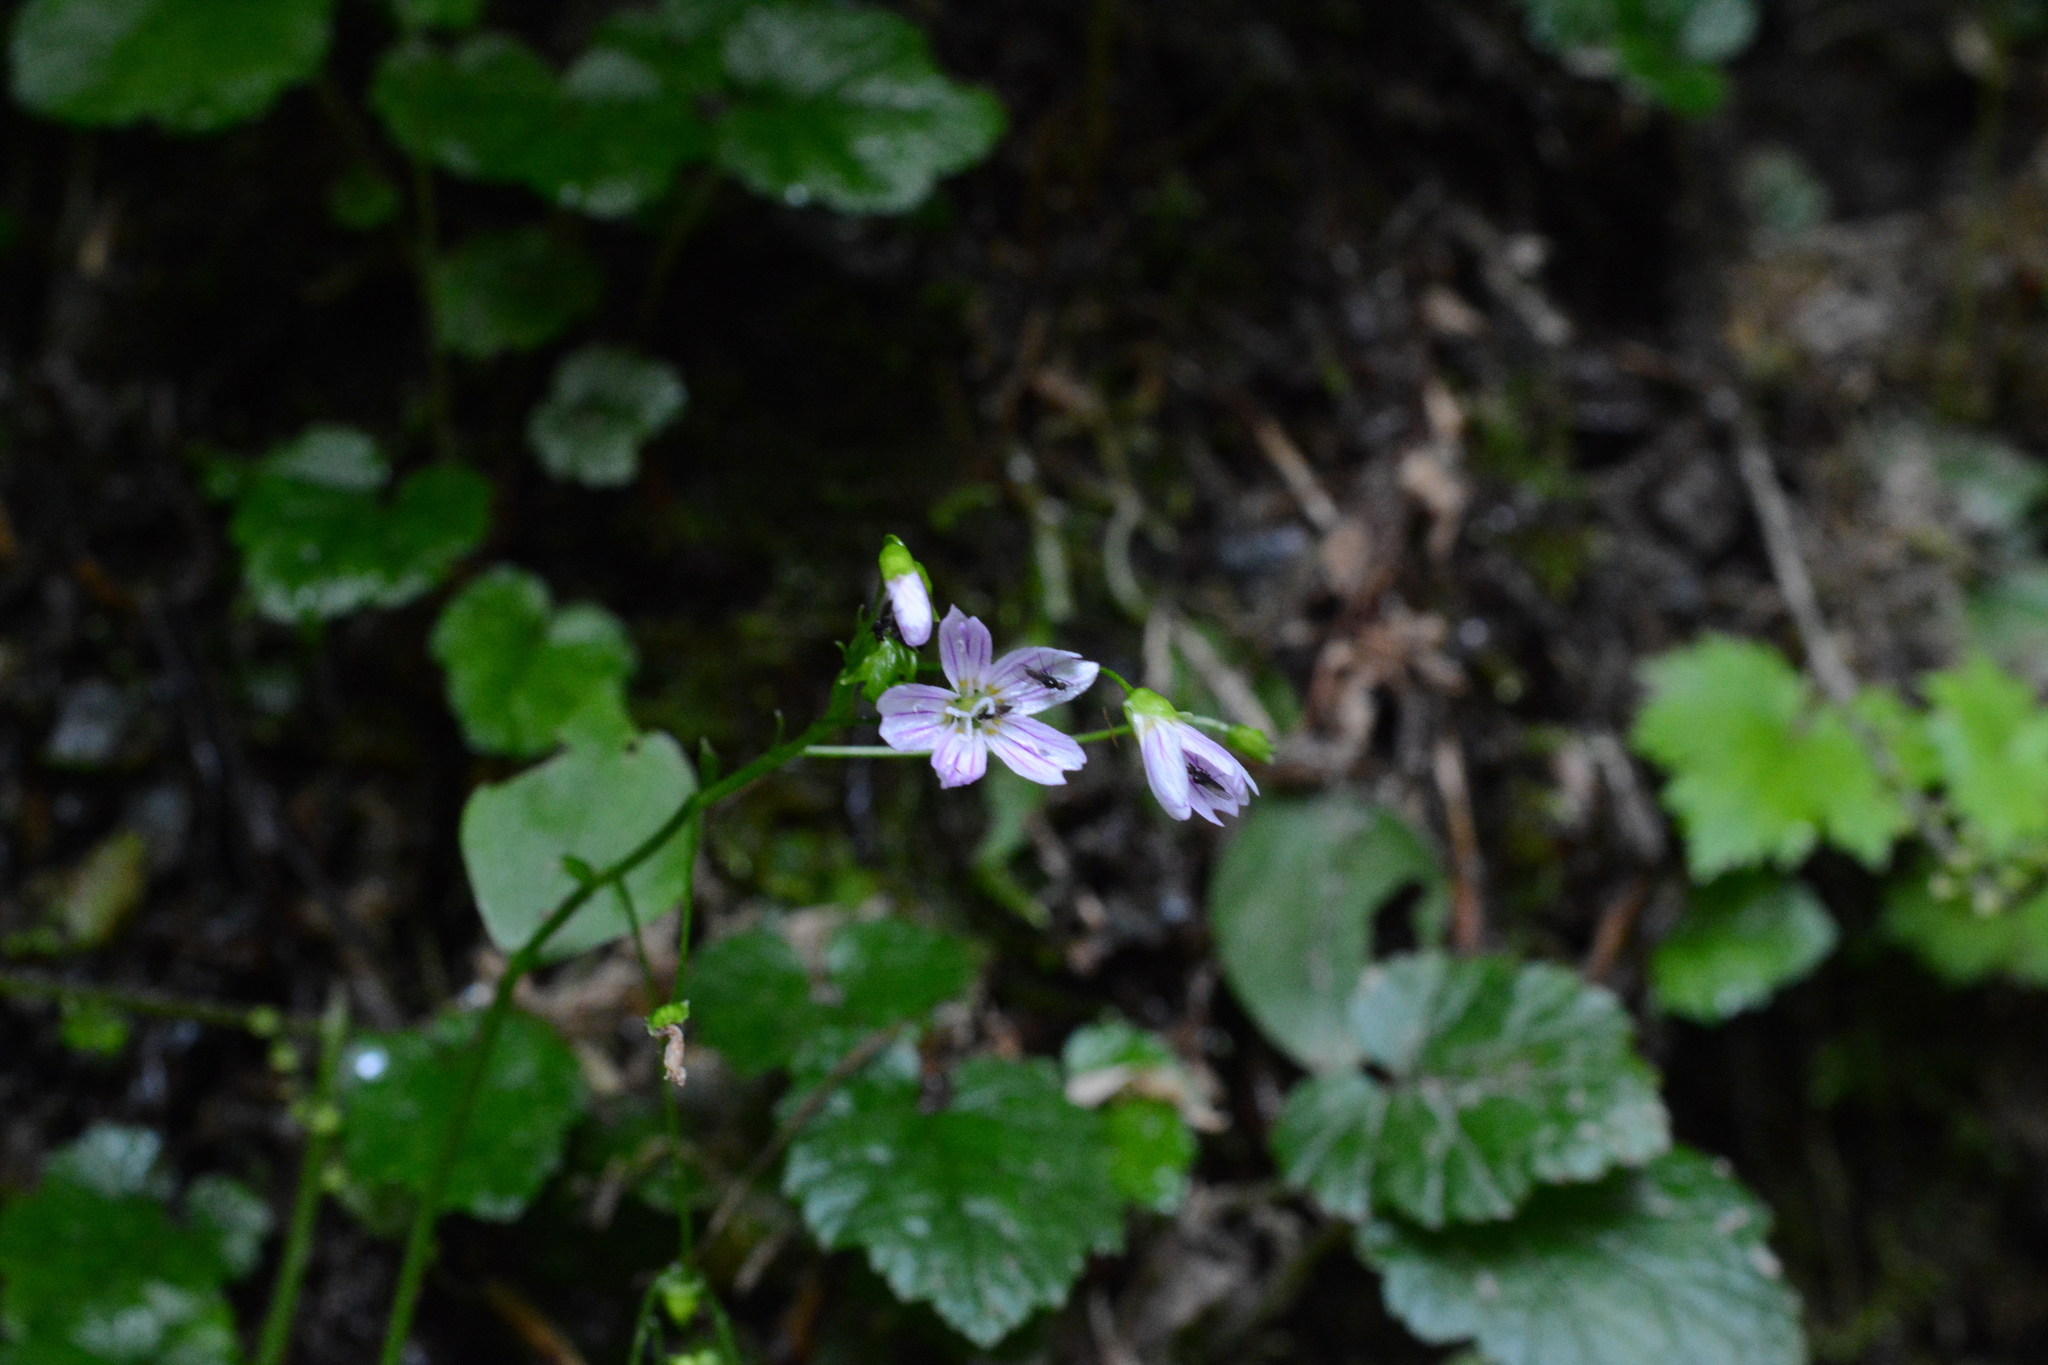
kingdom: Plantae
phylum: Tracheophyta
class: Magnoliopsida
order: Caryophyllales
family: Montiaceae
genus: Claytonia
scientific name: Claytonia sibirica
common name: Pink purslane
